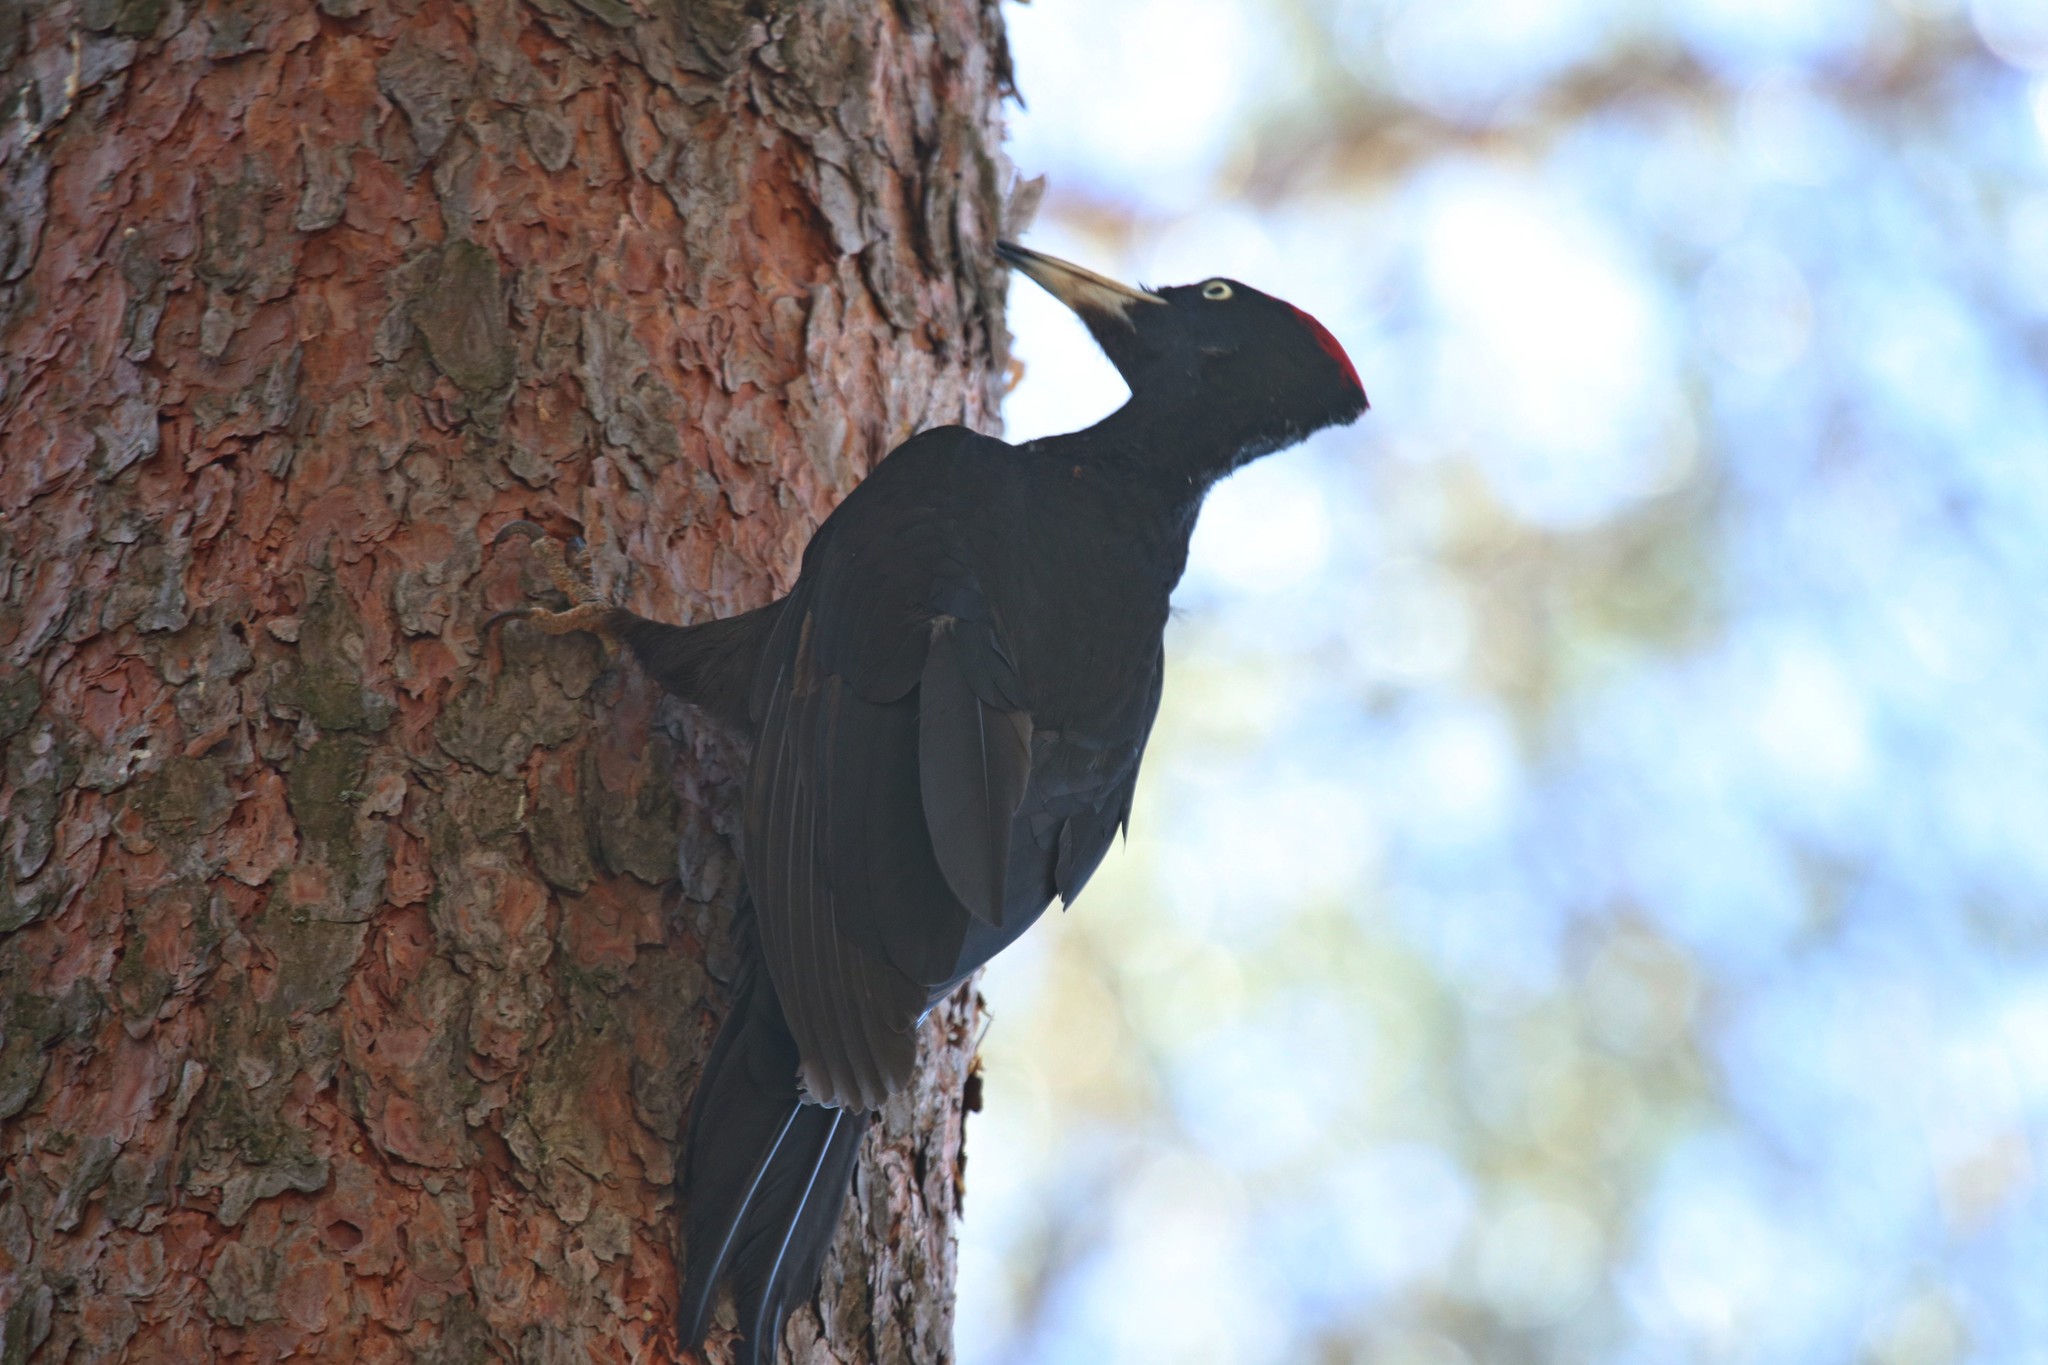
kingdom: Animalia
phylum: Chordata
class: Aves
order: Piciformes
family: Picidae
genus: Dryocopus
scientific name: Dryocopus martius
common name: Black woodpecker
